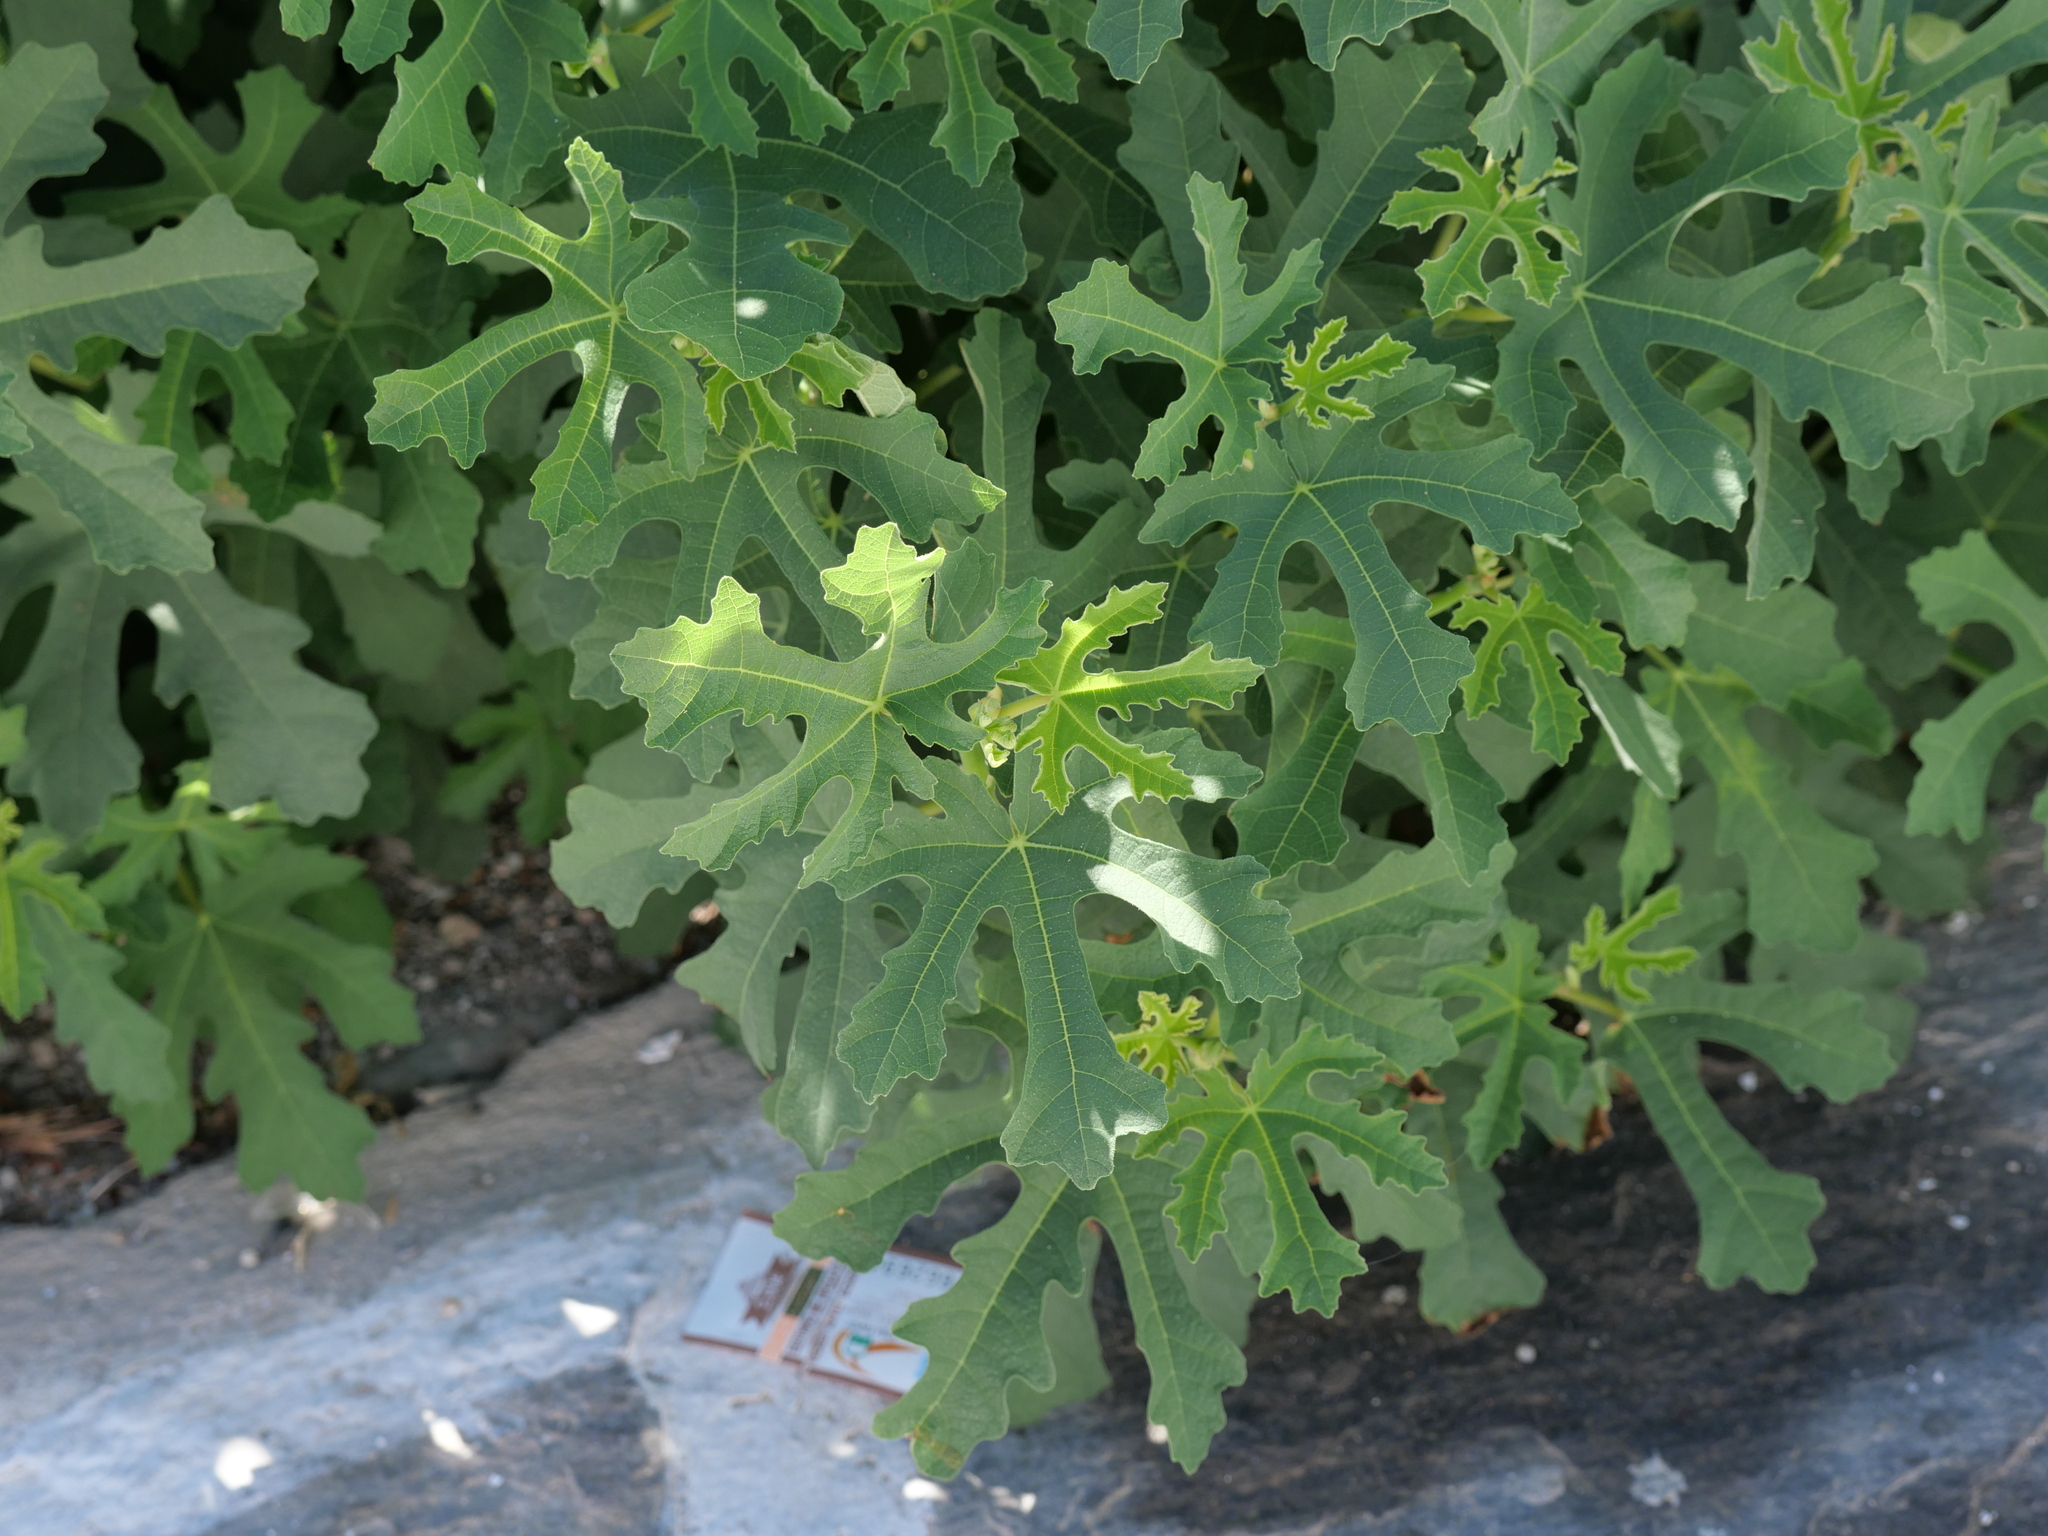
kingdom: Plantae
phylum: Tracheophyta
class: Magnoliopsida
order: Rosales
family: Moraceae
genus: Ficus
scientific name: Ficus carica
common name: Fig
